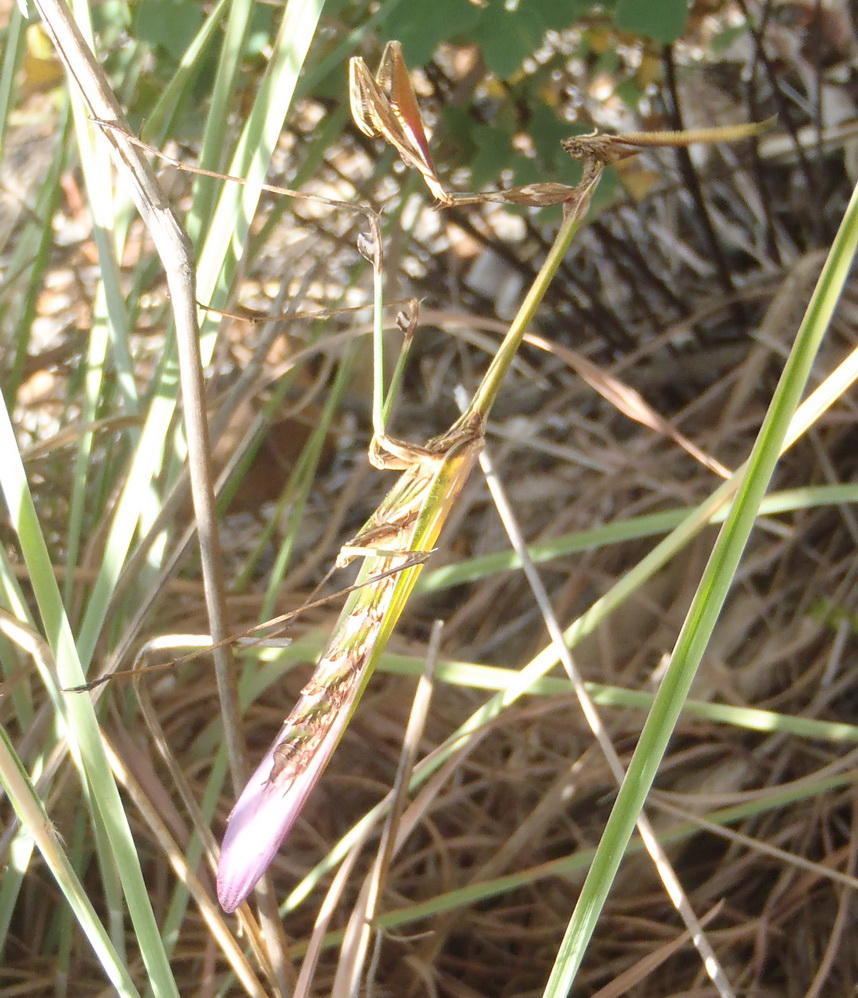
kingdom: Animalia
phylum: Arthropoda
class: Insecta
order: Mantodea
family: Empusidae
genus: Hemiempusa
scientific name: Hemiempusa capensis
